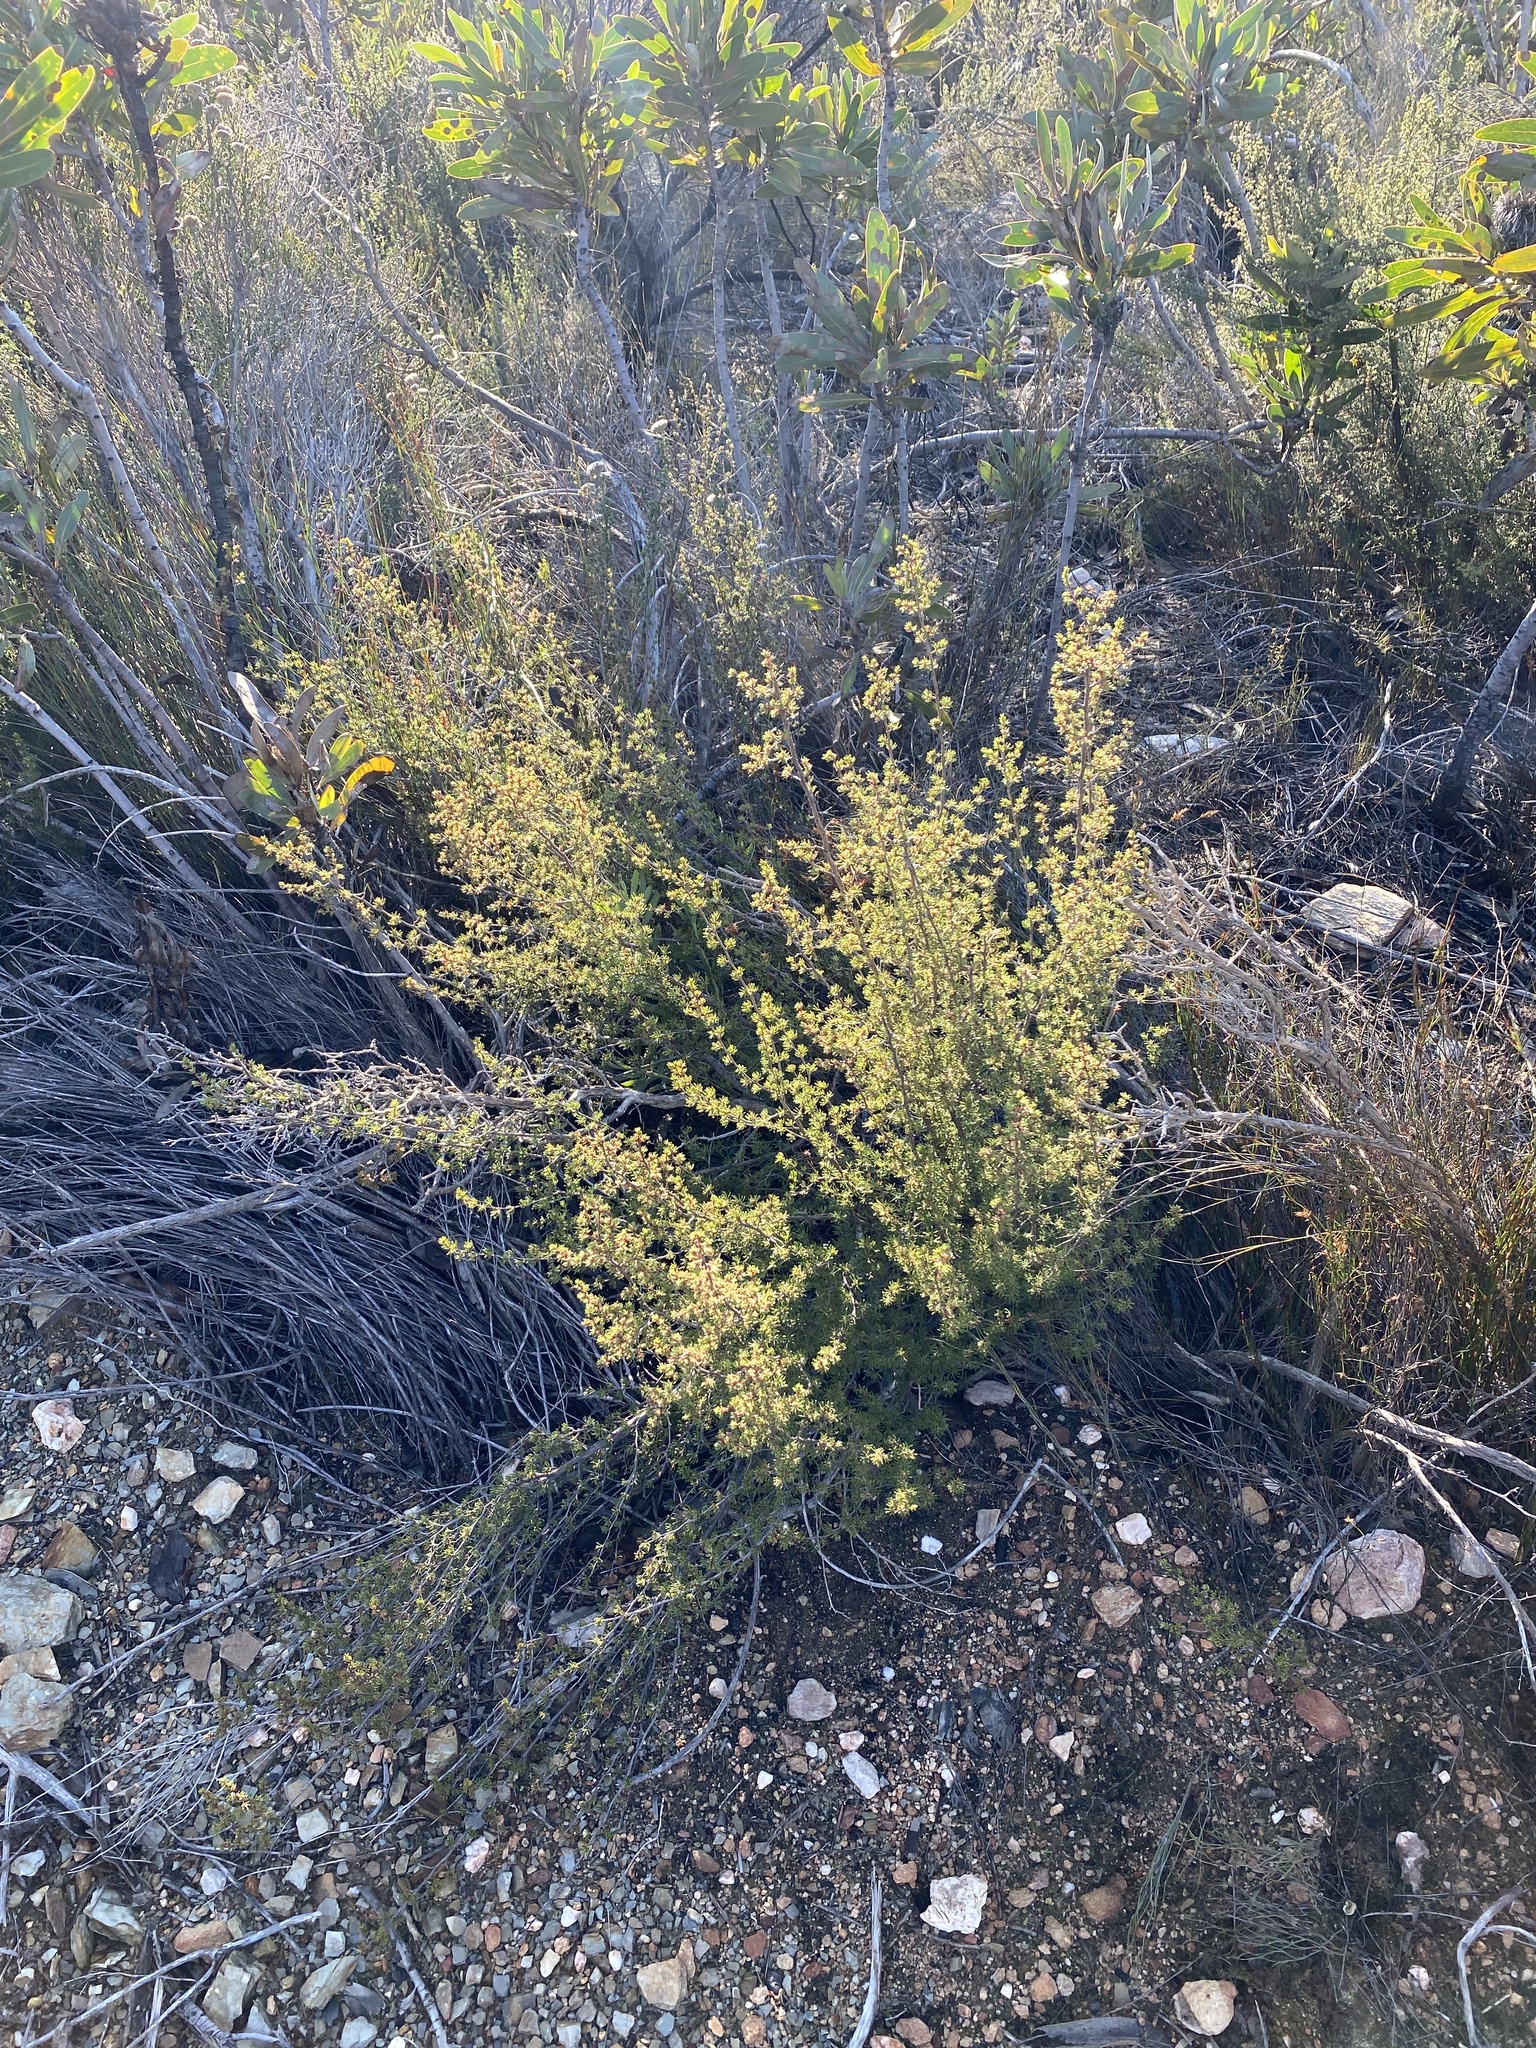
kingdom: Plantae
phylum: Tracheophyta
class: Magnoliopsida
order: Rosales
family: Rosaceae
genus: Cliffortia
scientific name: Cliffortia tuberculata
